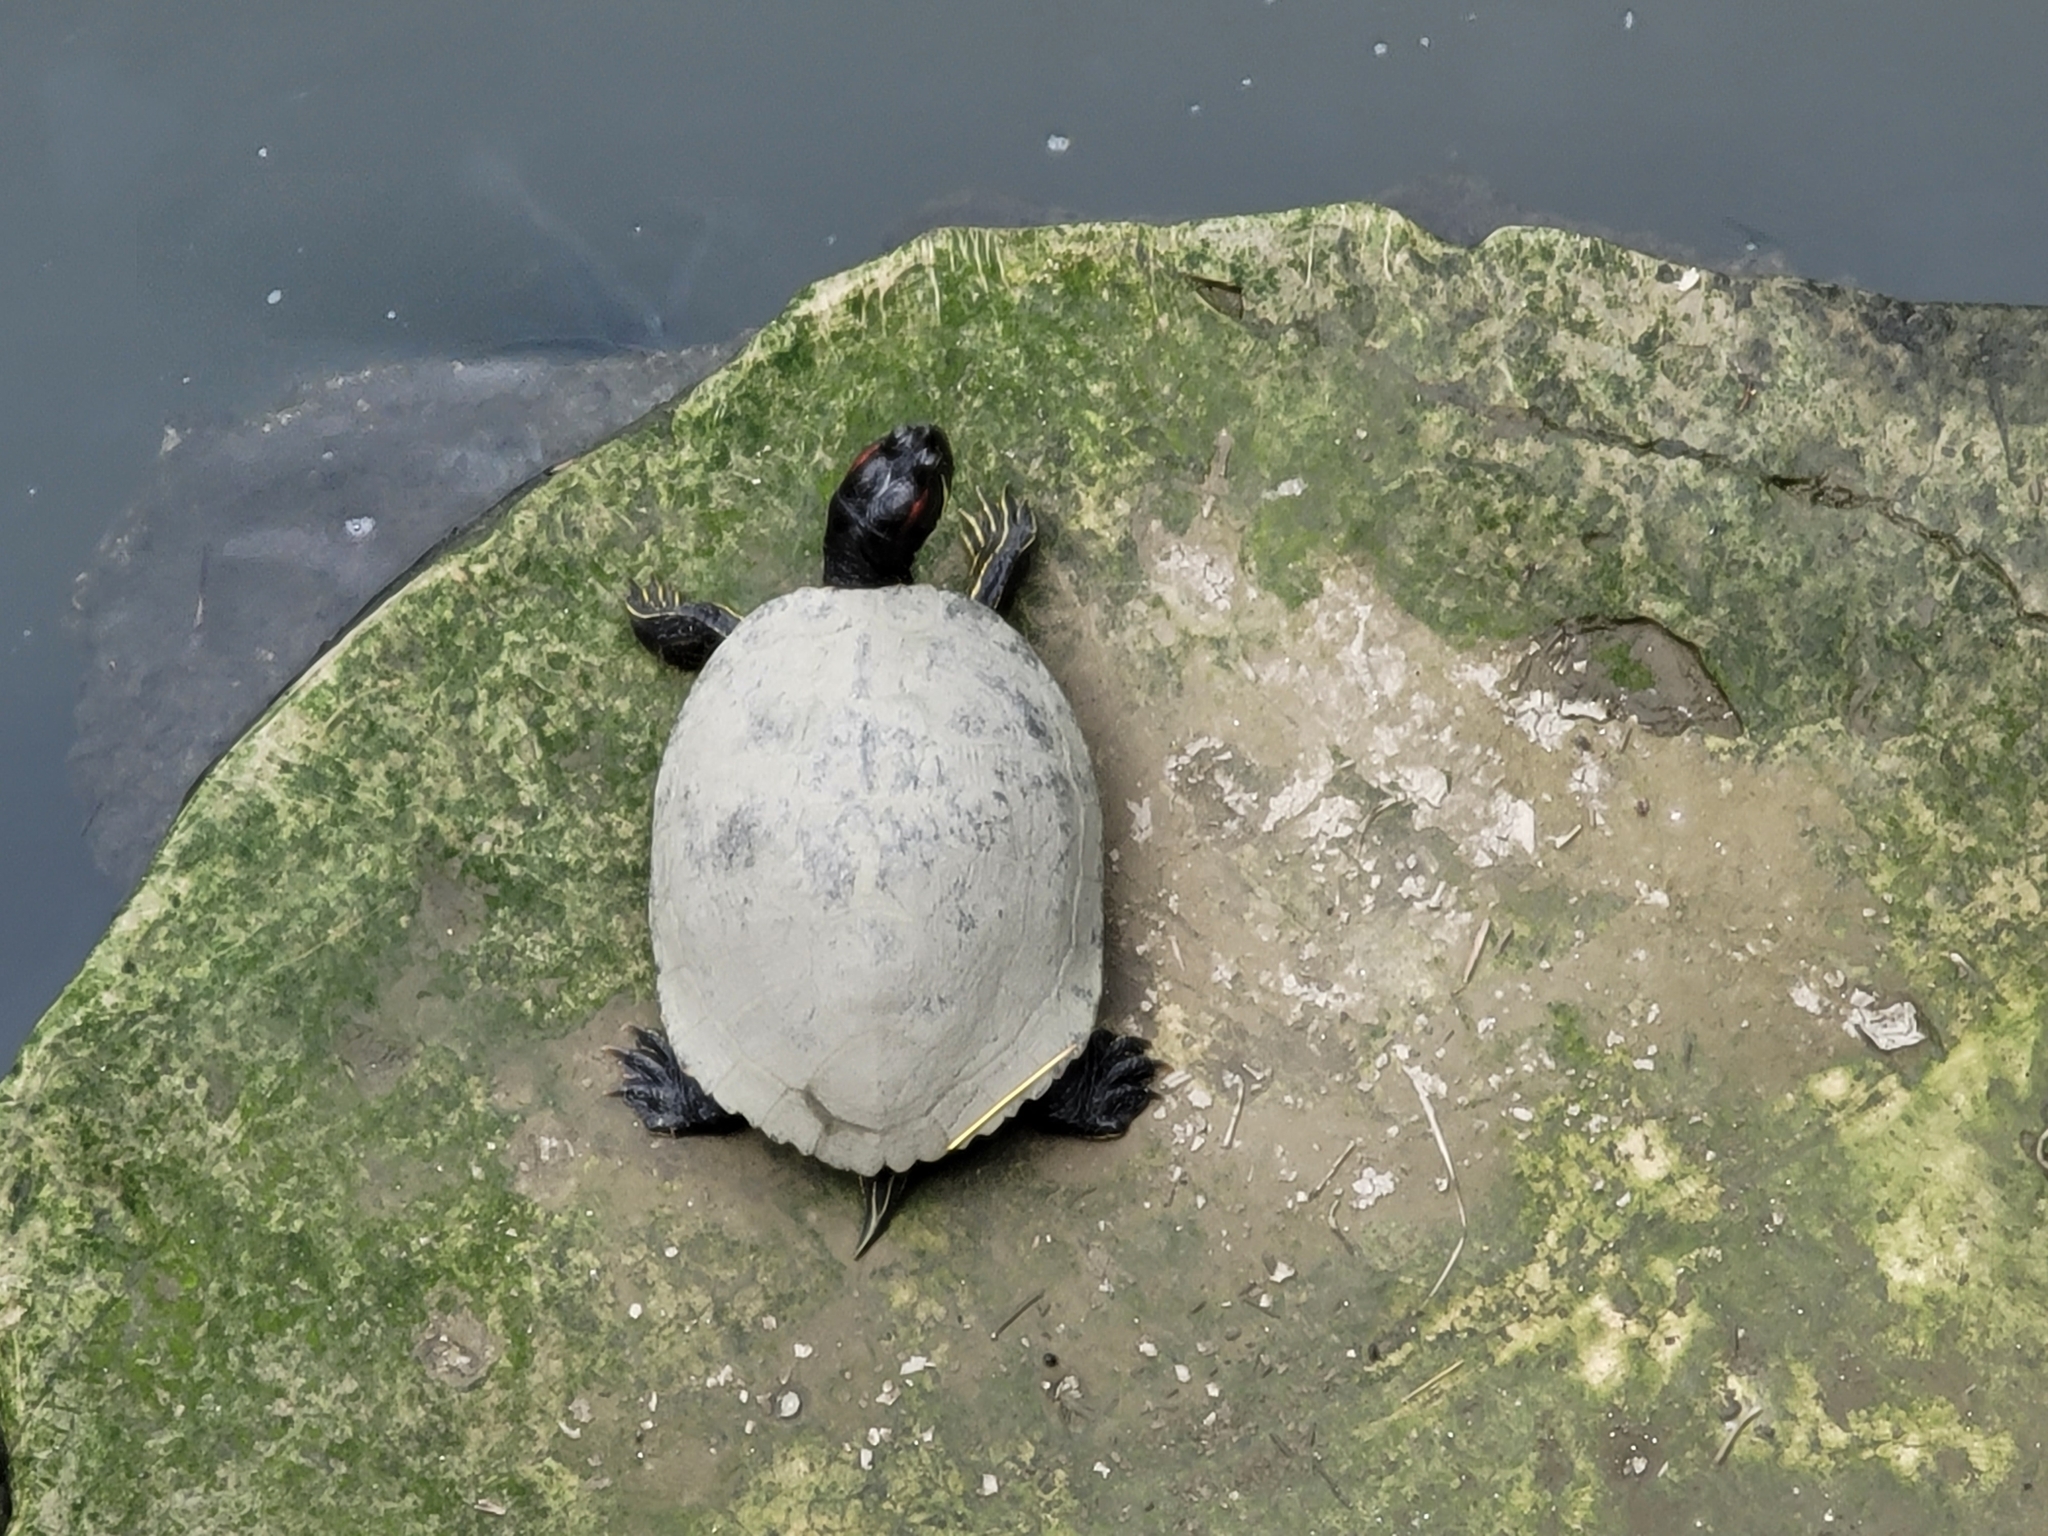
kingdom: Animalia
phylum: Chordata
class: Testudines
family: Emydidae
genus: Trachemys
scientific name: Trachemys scripta
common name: Slider
